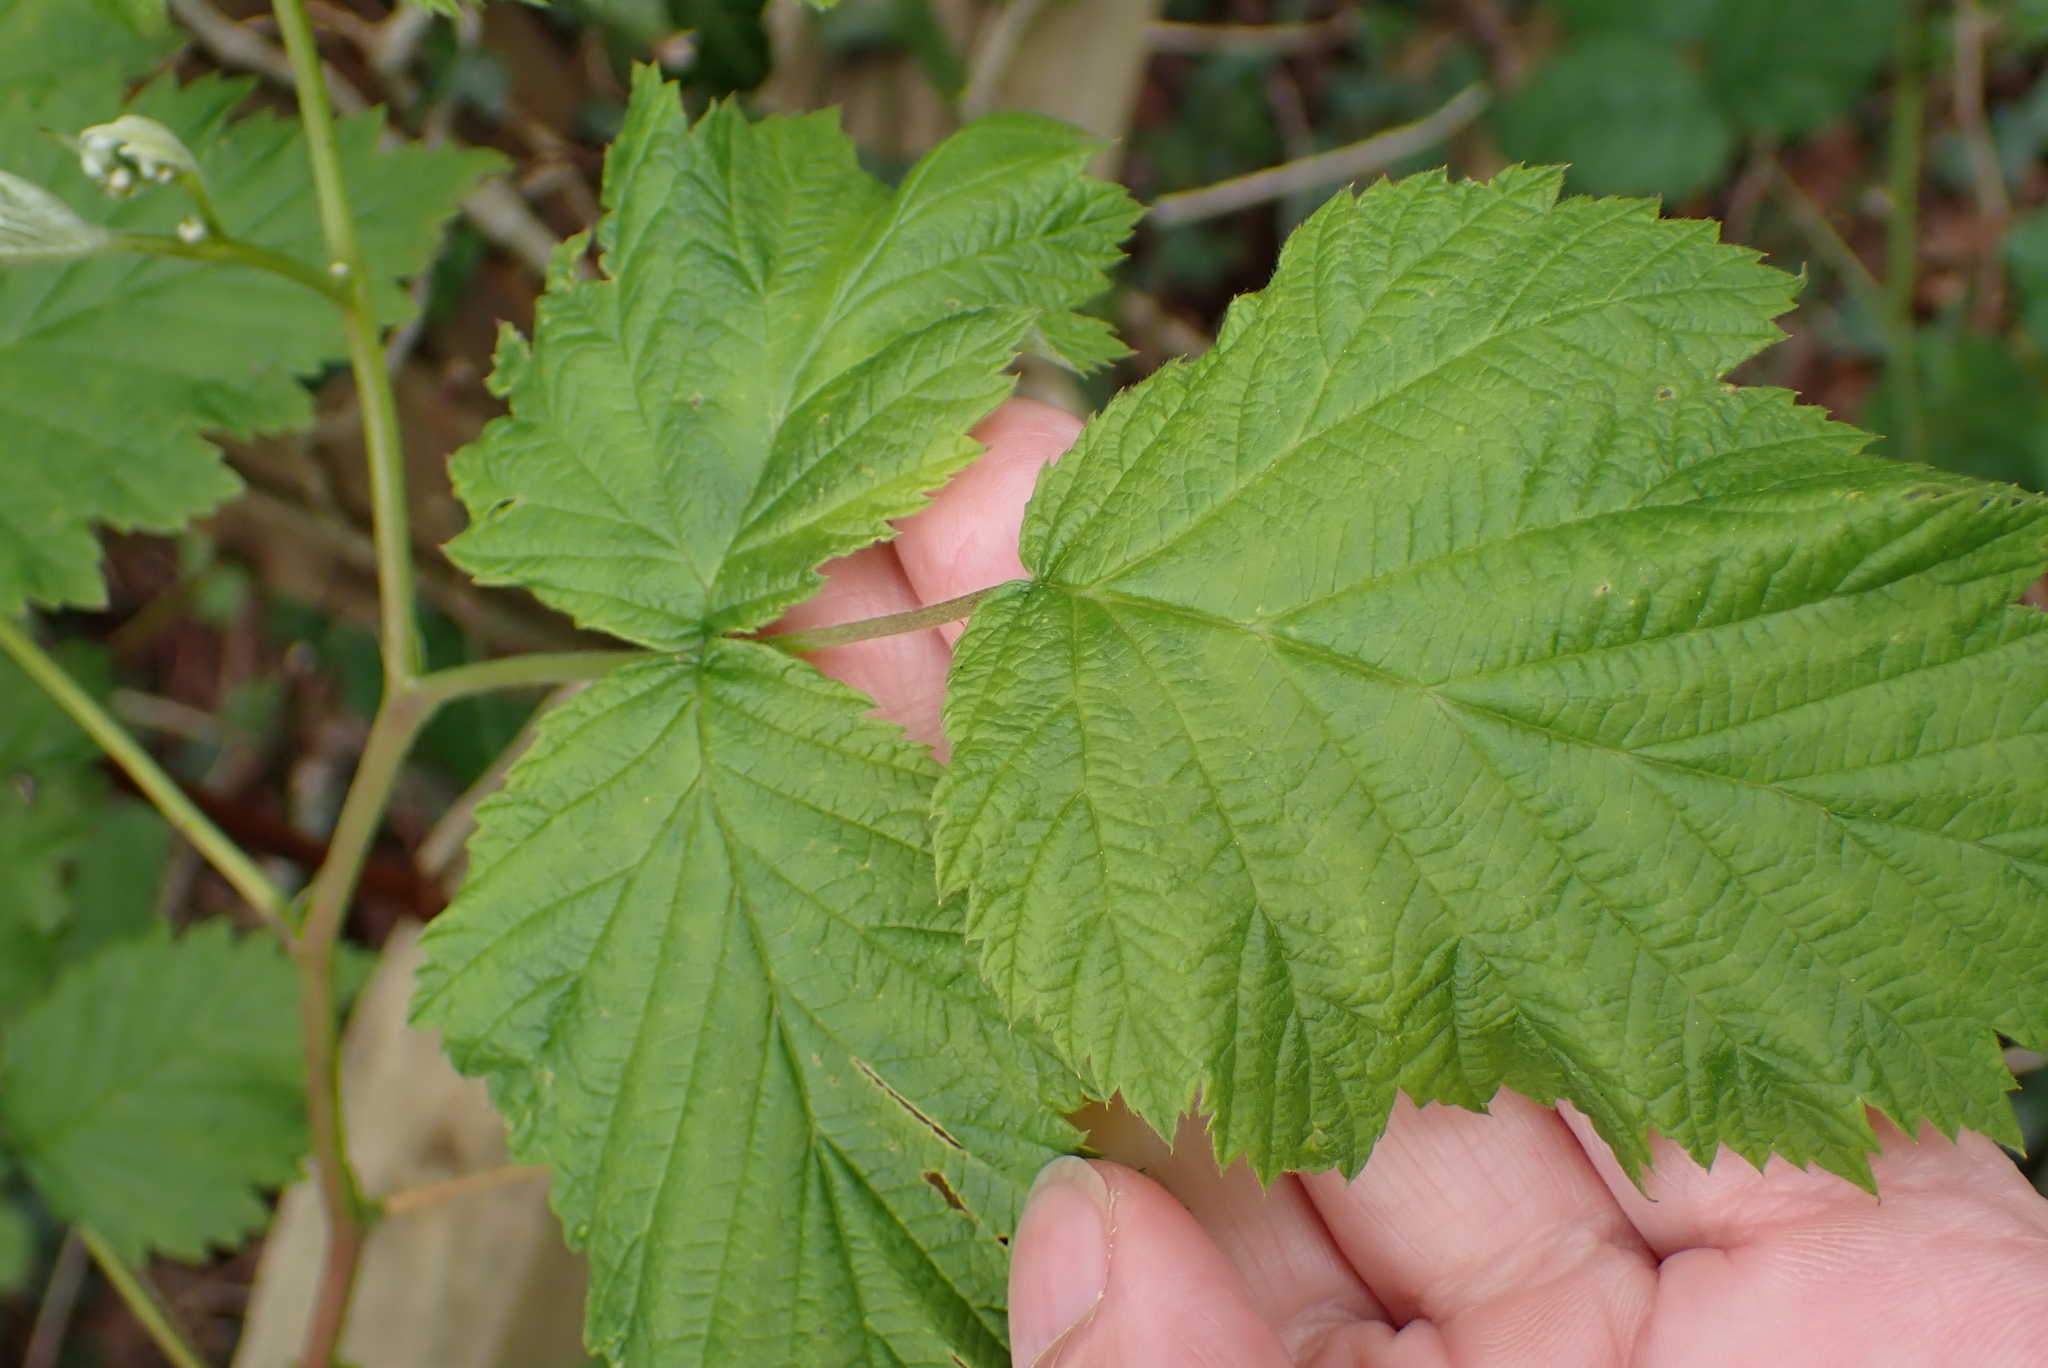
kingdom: Plantae
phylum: Tracheophyta
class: Magnoliopsida
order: Rosales
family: Rosaceae
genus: Rubus
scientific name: Rubus idaeus
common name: Raspberry
